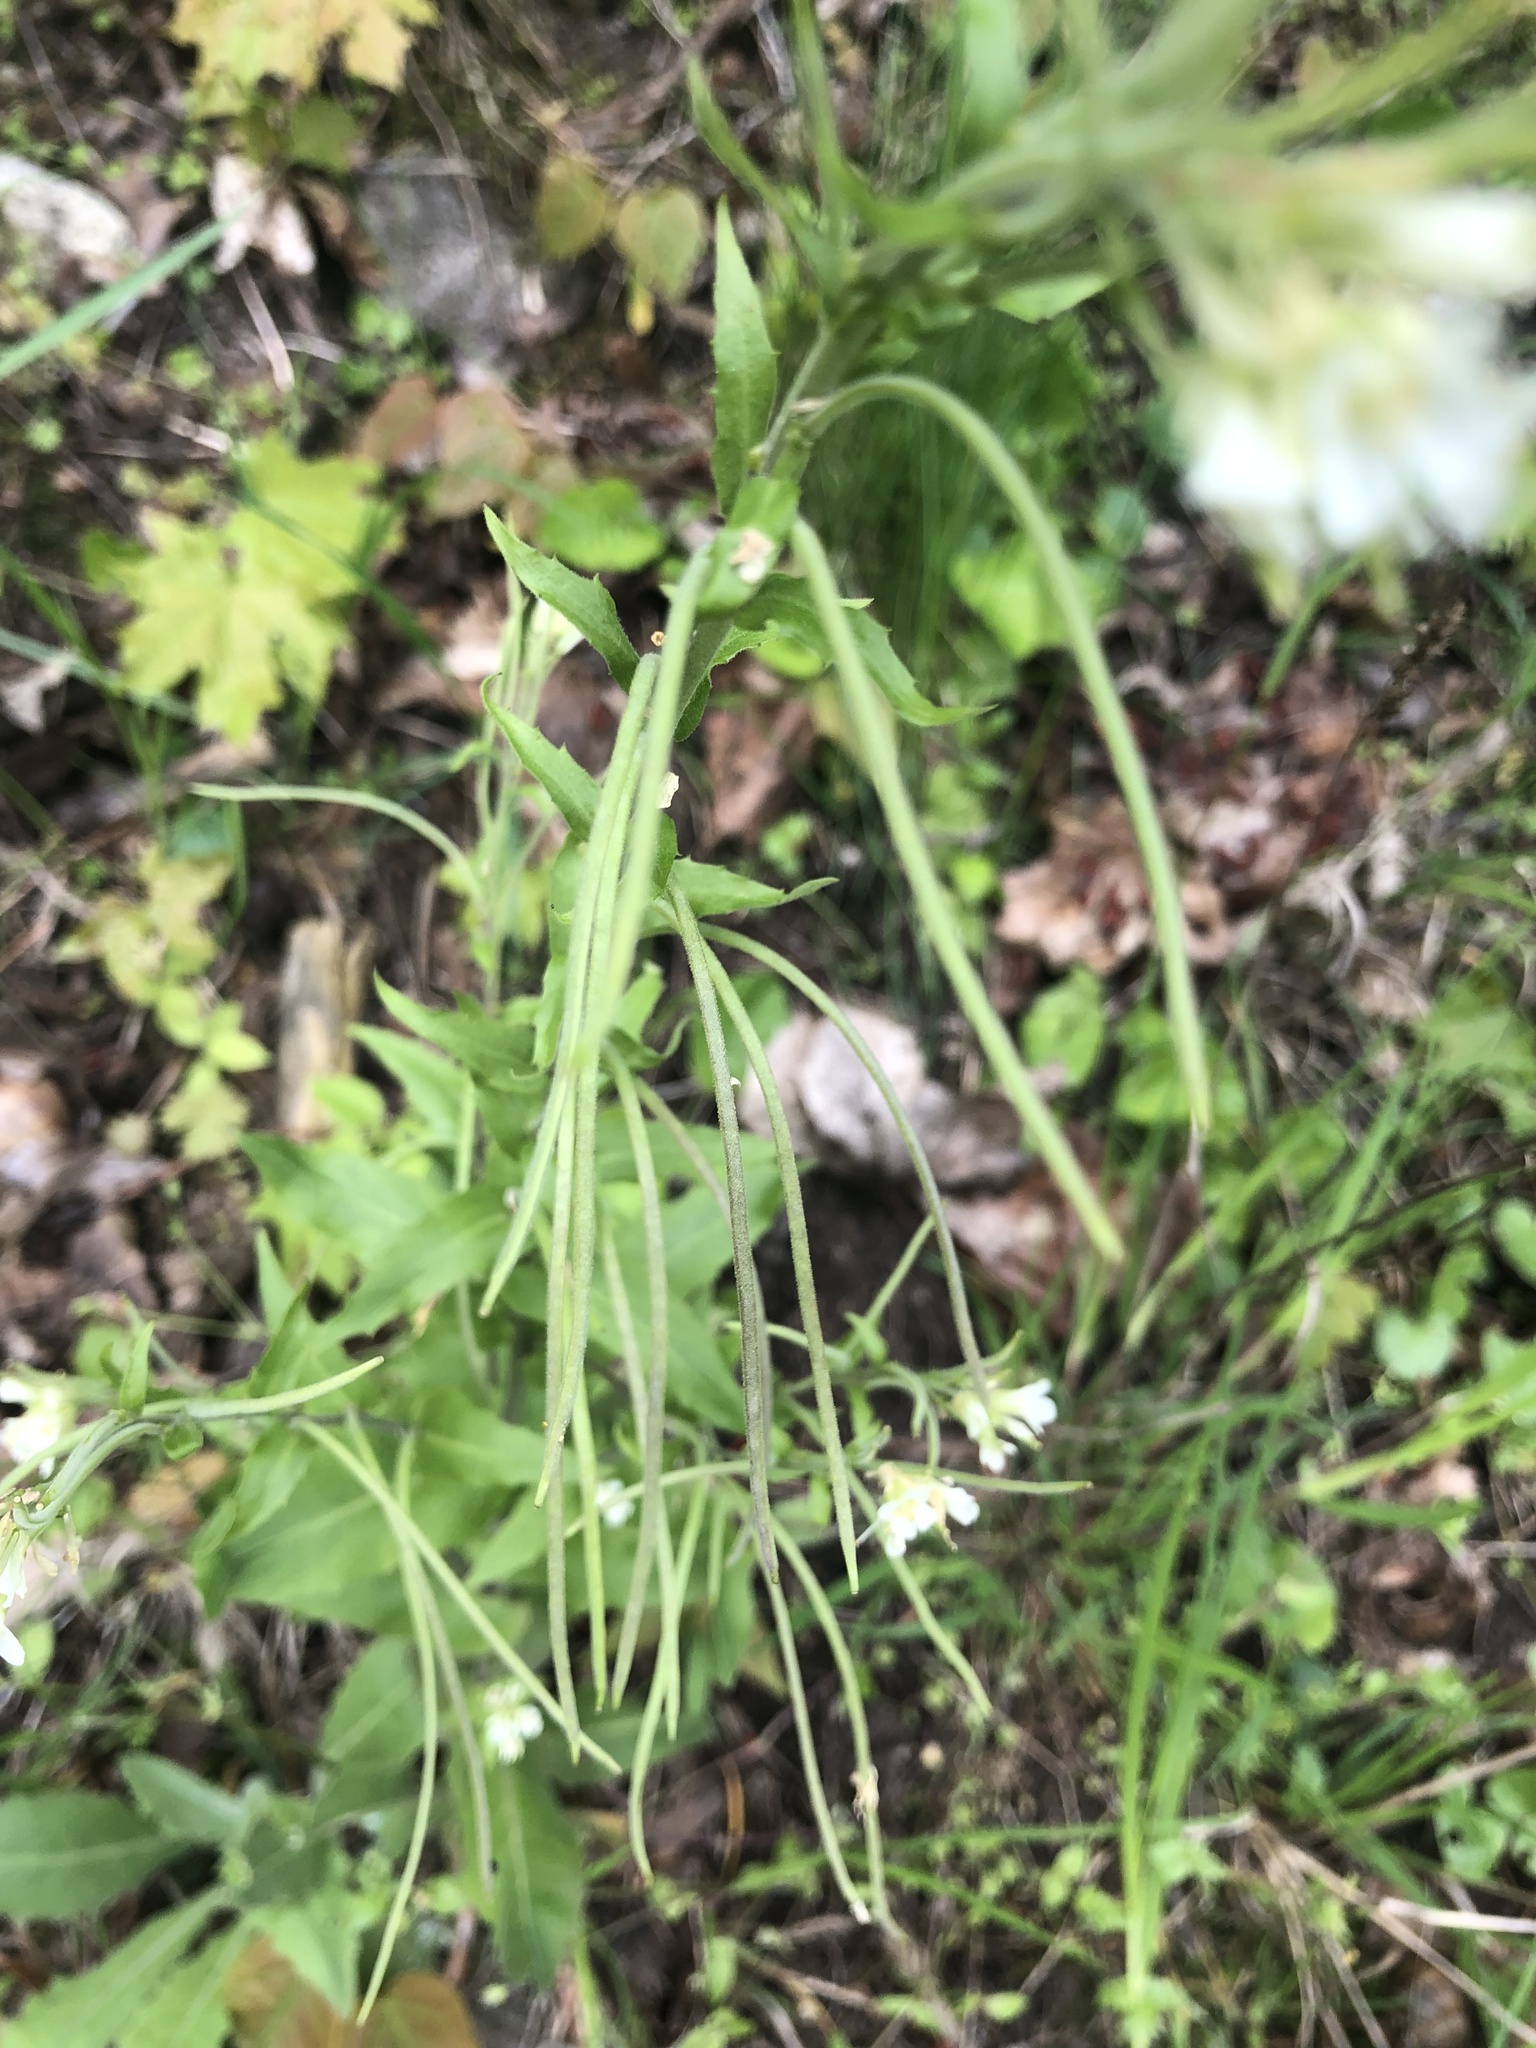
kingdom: Plantae
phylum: Tracheophyta
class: Magnoliopsida
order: Brassicales
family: Brassicaceae
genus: Pseudoturritis
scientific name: Pseudoturritis turrita
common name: Tower cress
